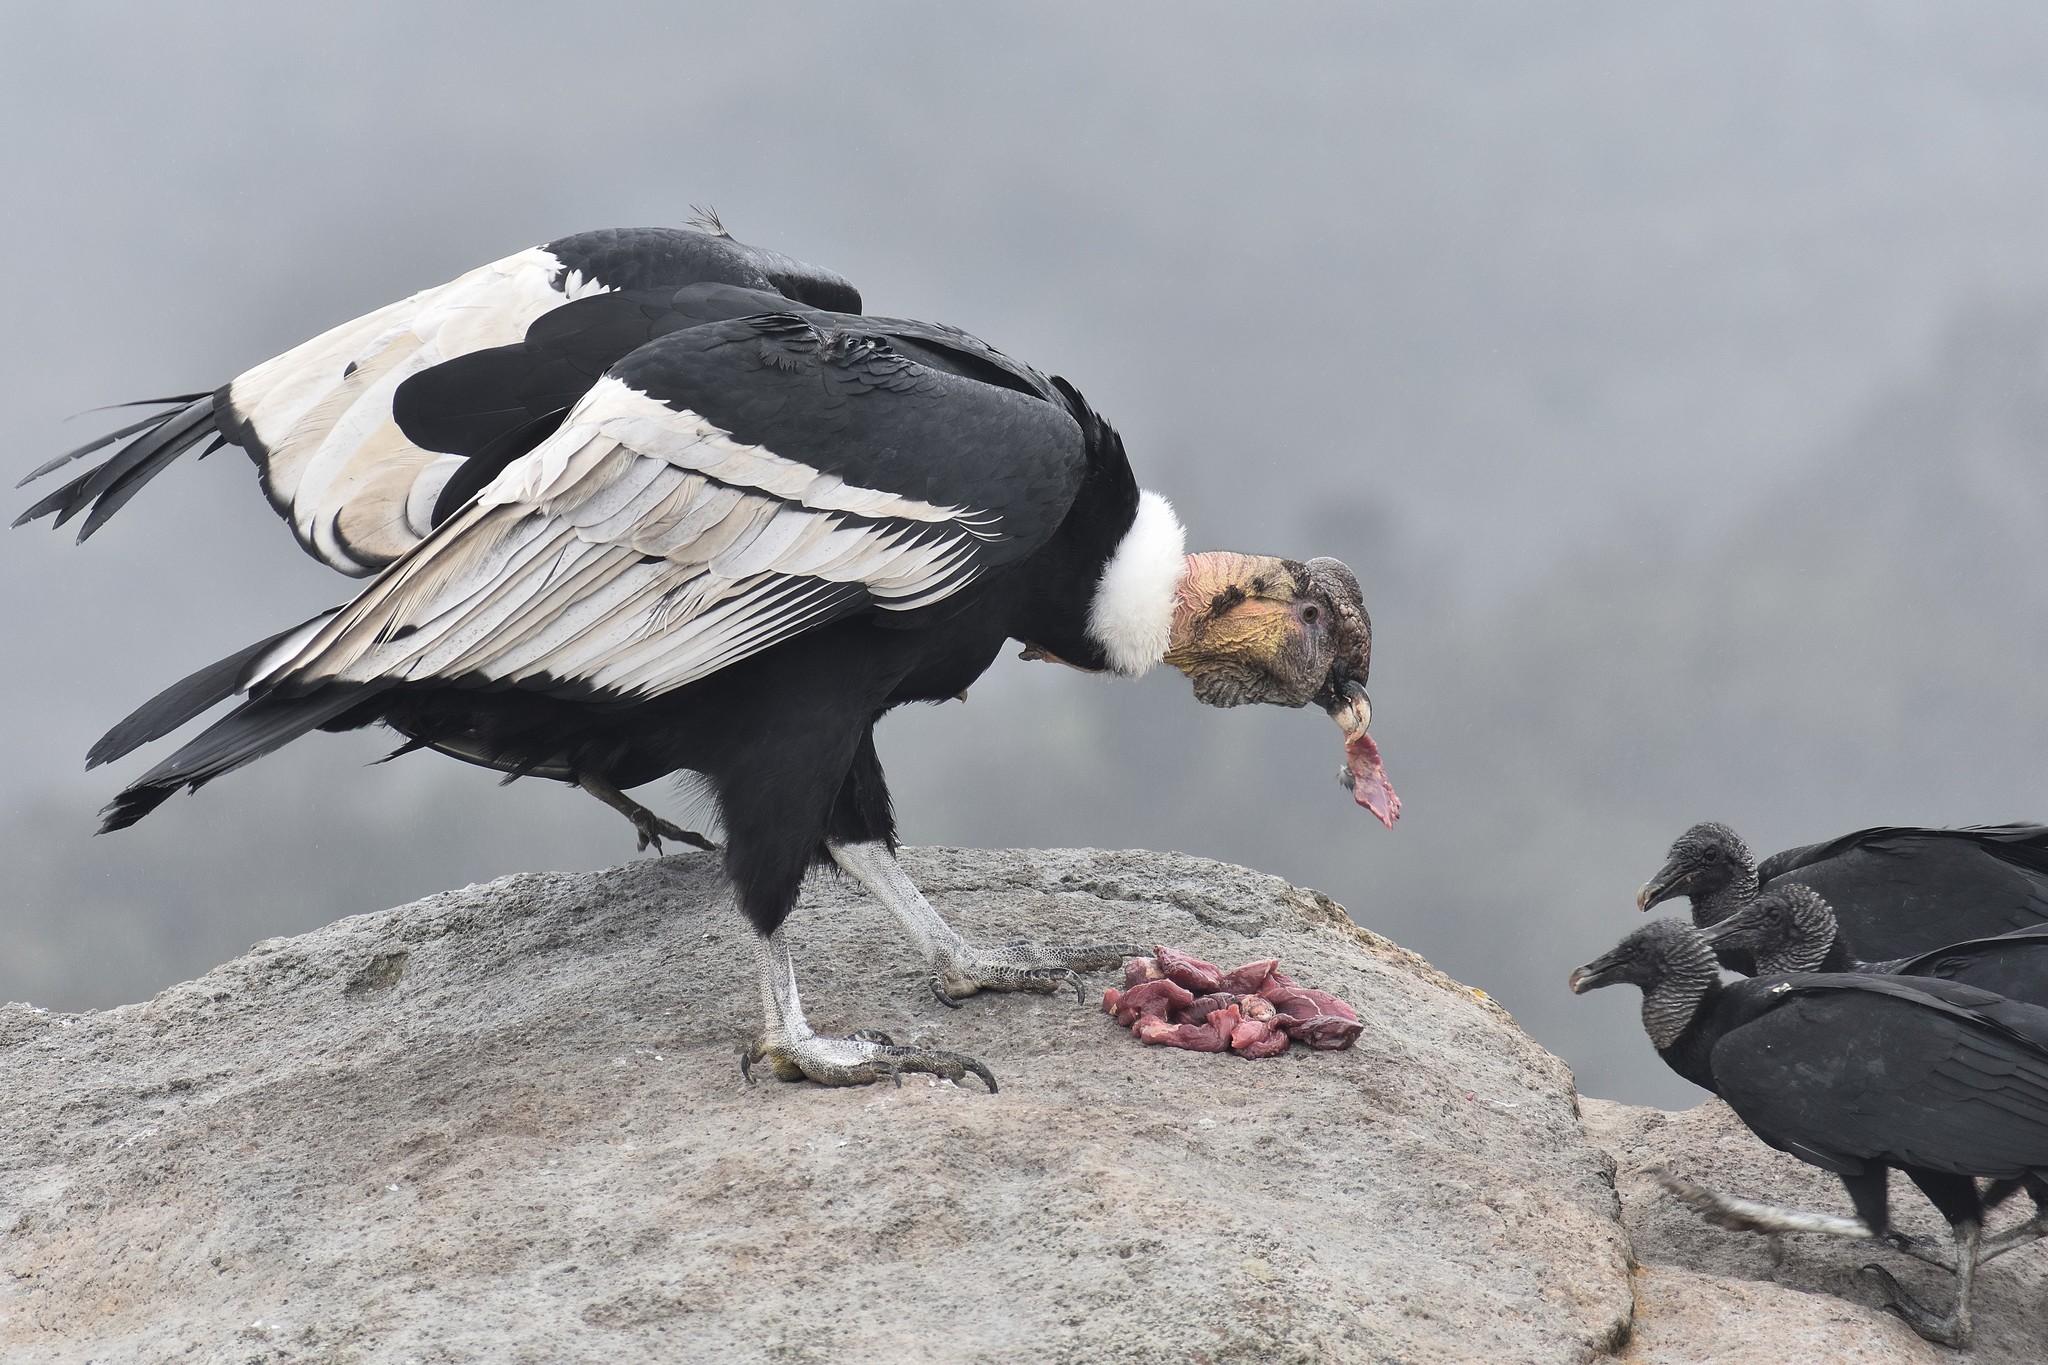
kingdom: Animalia
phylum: Chordata
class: Aves
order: Accipitriformes
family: Cathartidae
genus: Vultur
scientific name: Vultur gryphus
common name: Andean condor
